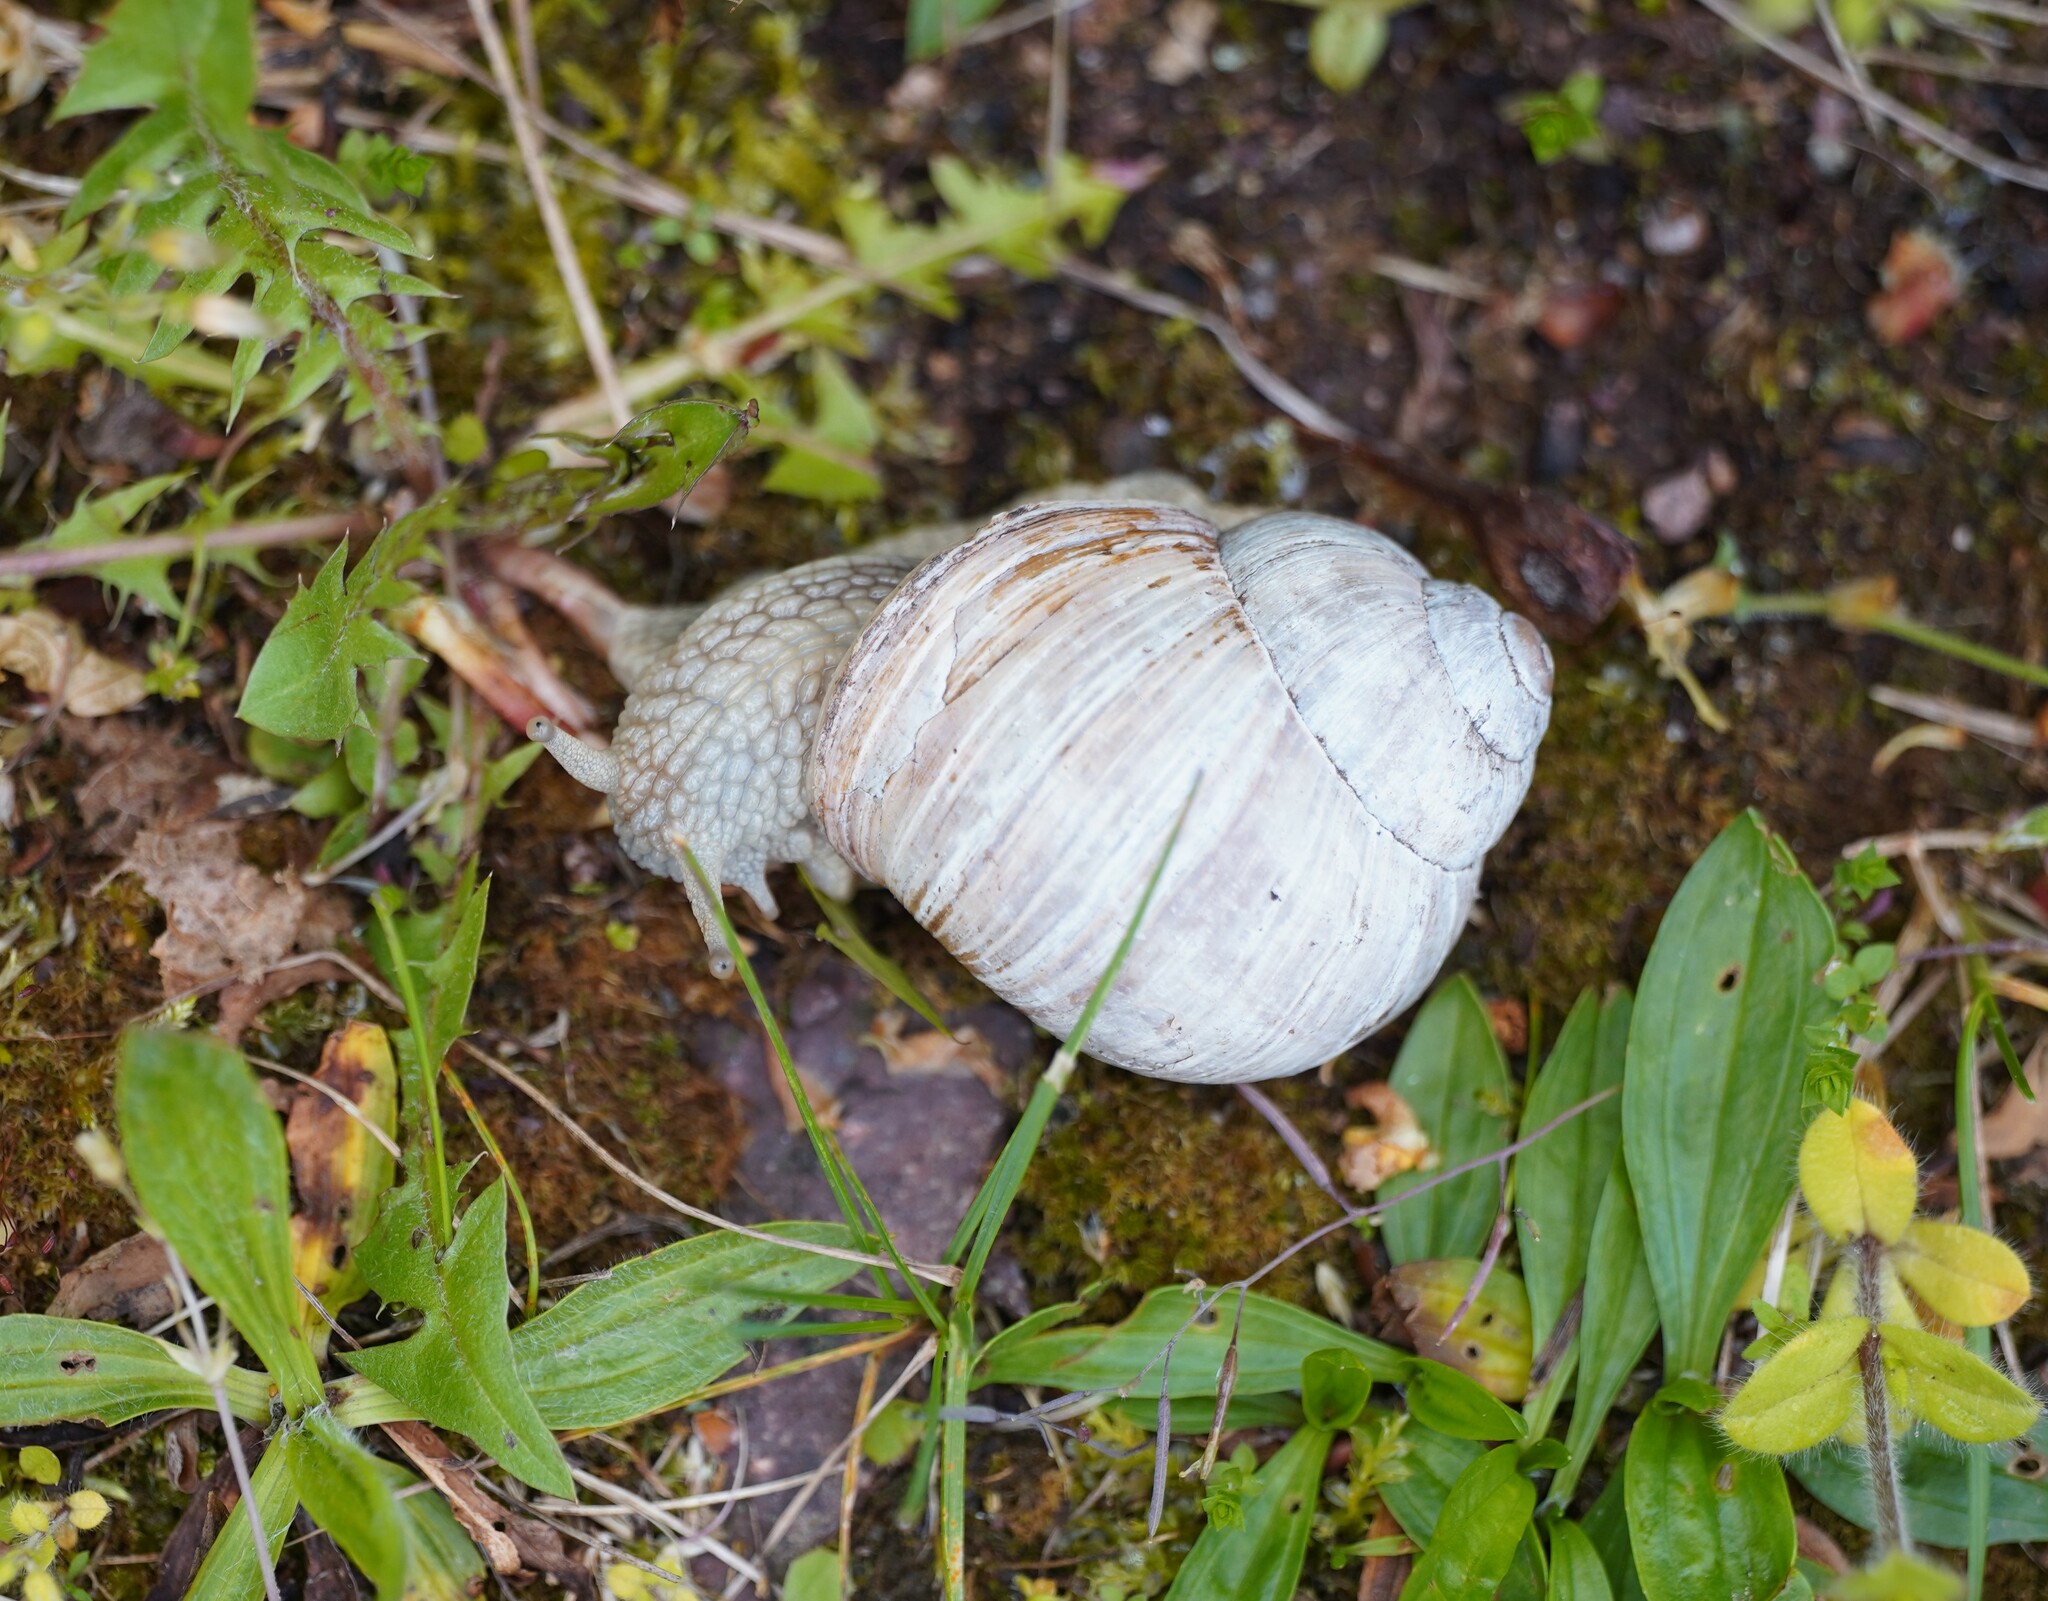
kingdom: Animalia
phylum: Mollusca
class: Gastropoda
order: Stylommatophora
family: Helicidae
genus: Helix
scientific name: Helix pomatia
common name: Roman snail
